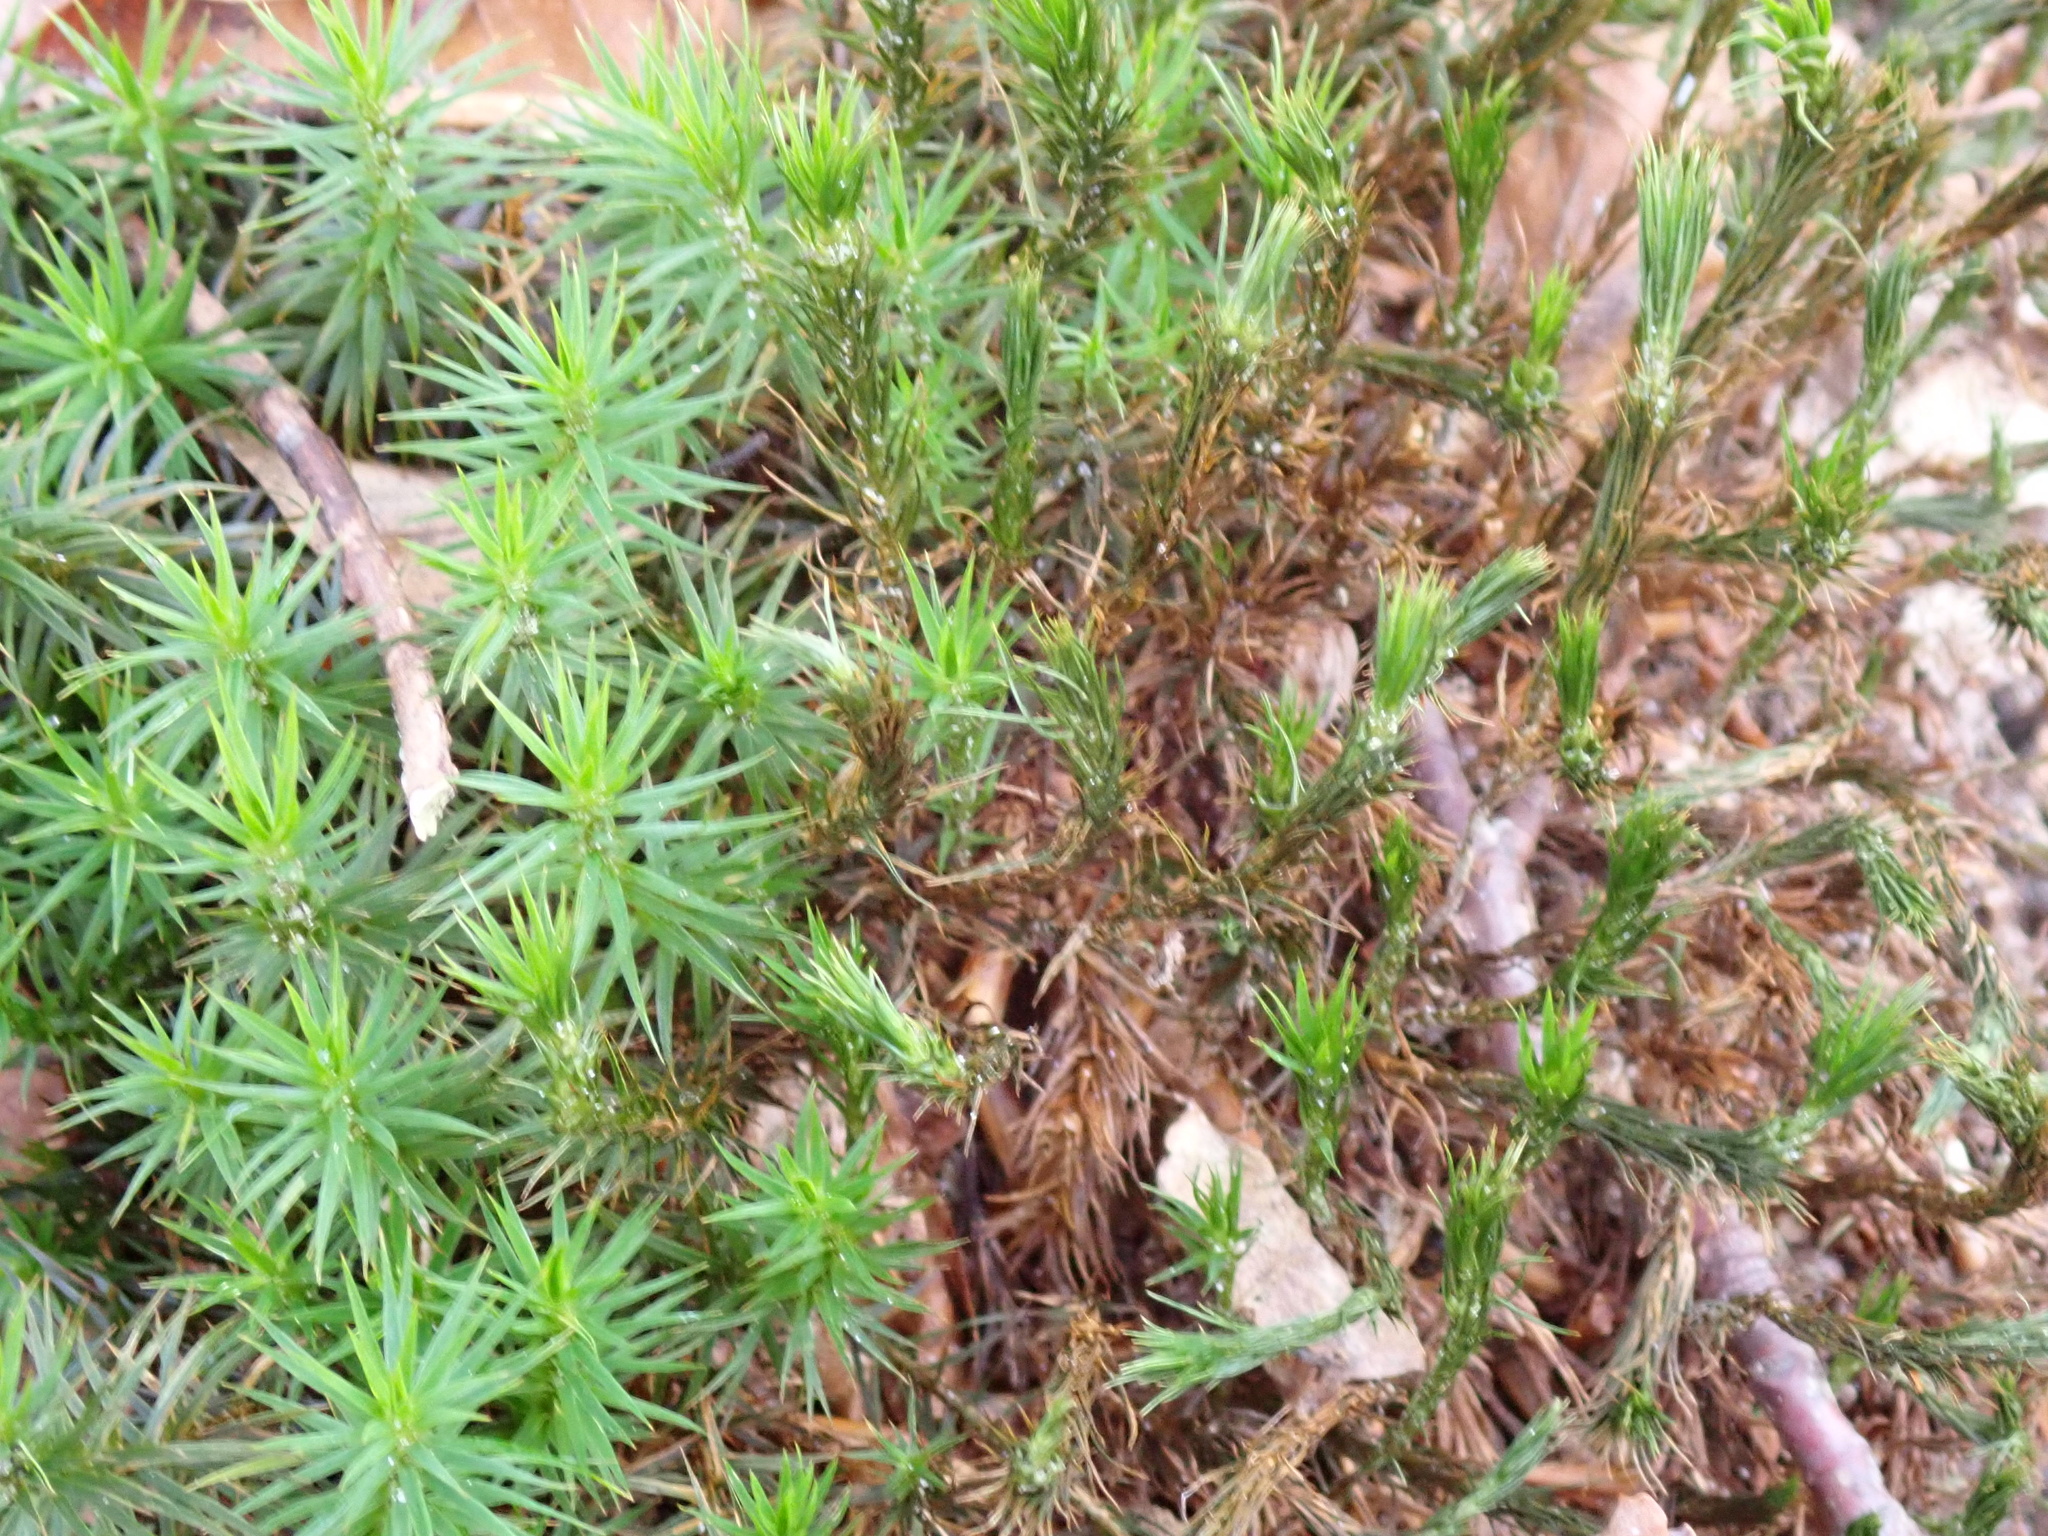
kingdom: Plantae
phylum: Bryophyta
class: Polytrichopsida
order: Polytrichales
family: Polytrichaceae
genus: Polytrichum
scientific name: Polytrichum formosum
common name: Bank haircap moss
